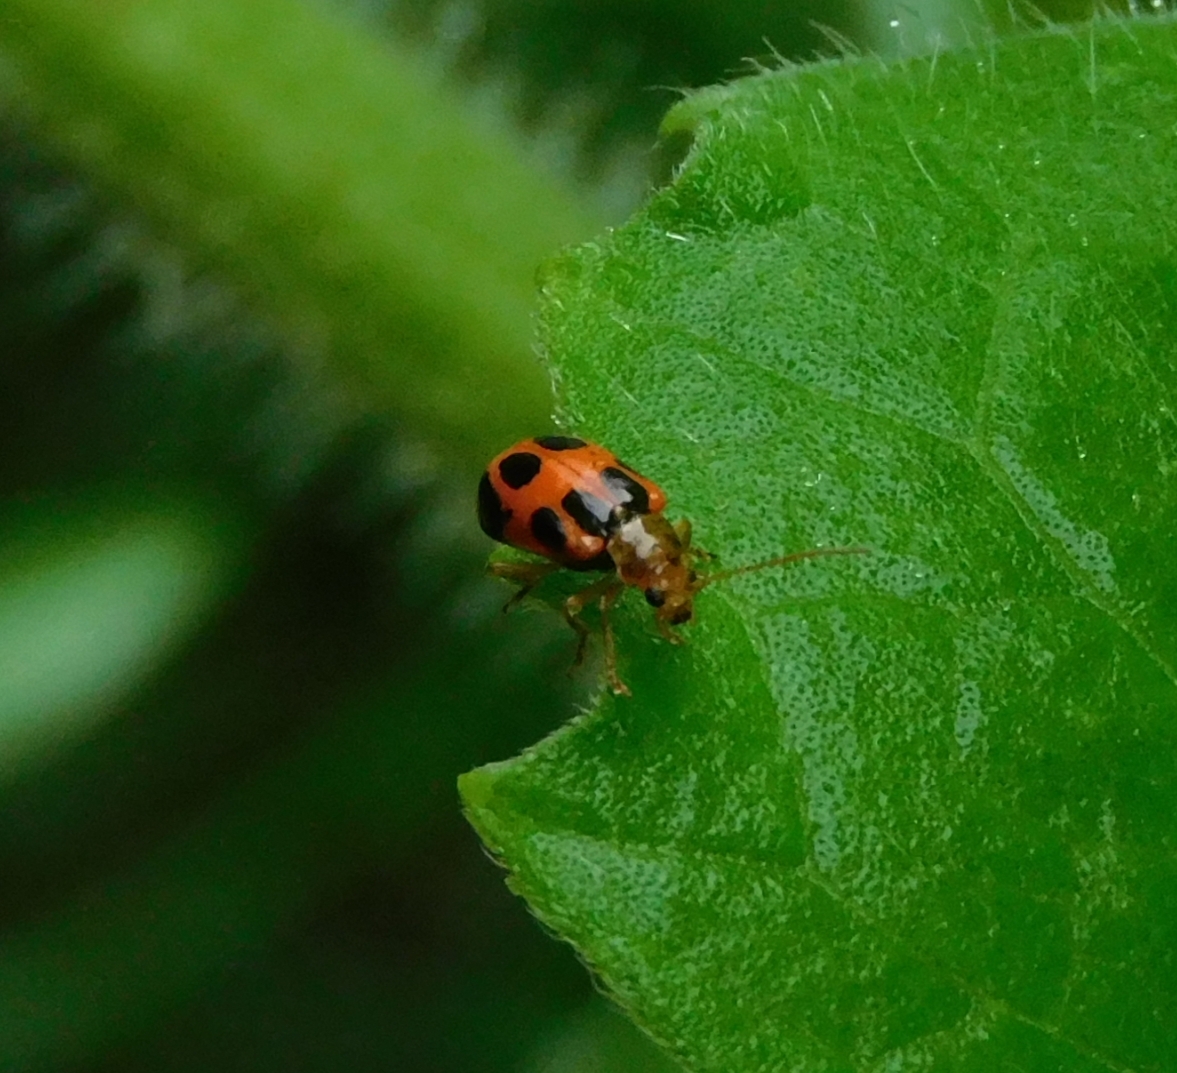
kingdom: Animalia
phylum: Arthropoda
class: Insecta
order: Coleoptera
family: Chrysomelidae
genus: Paridea
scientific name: Paridea
